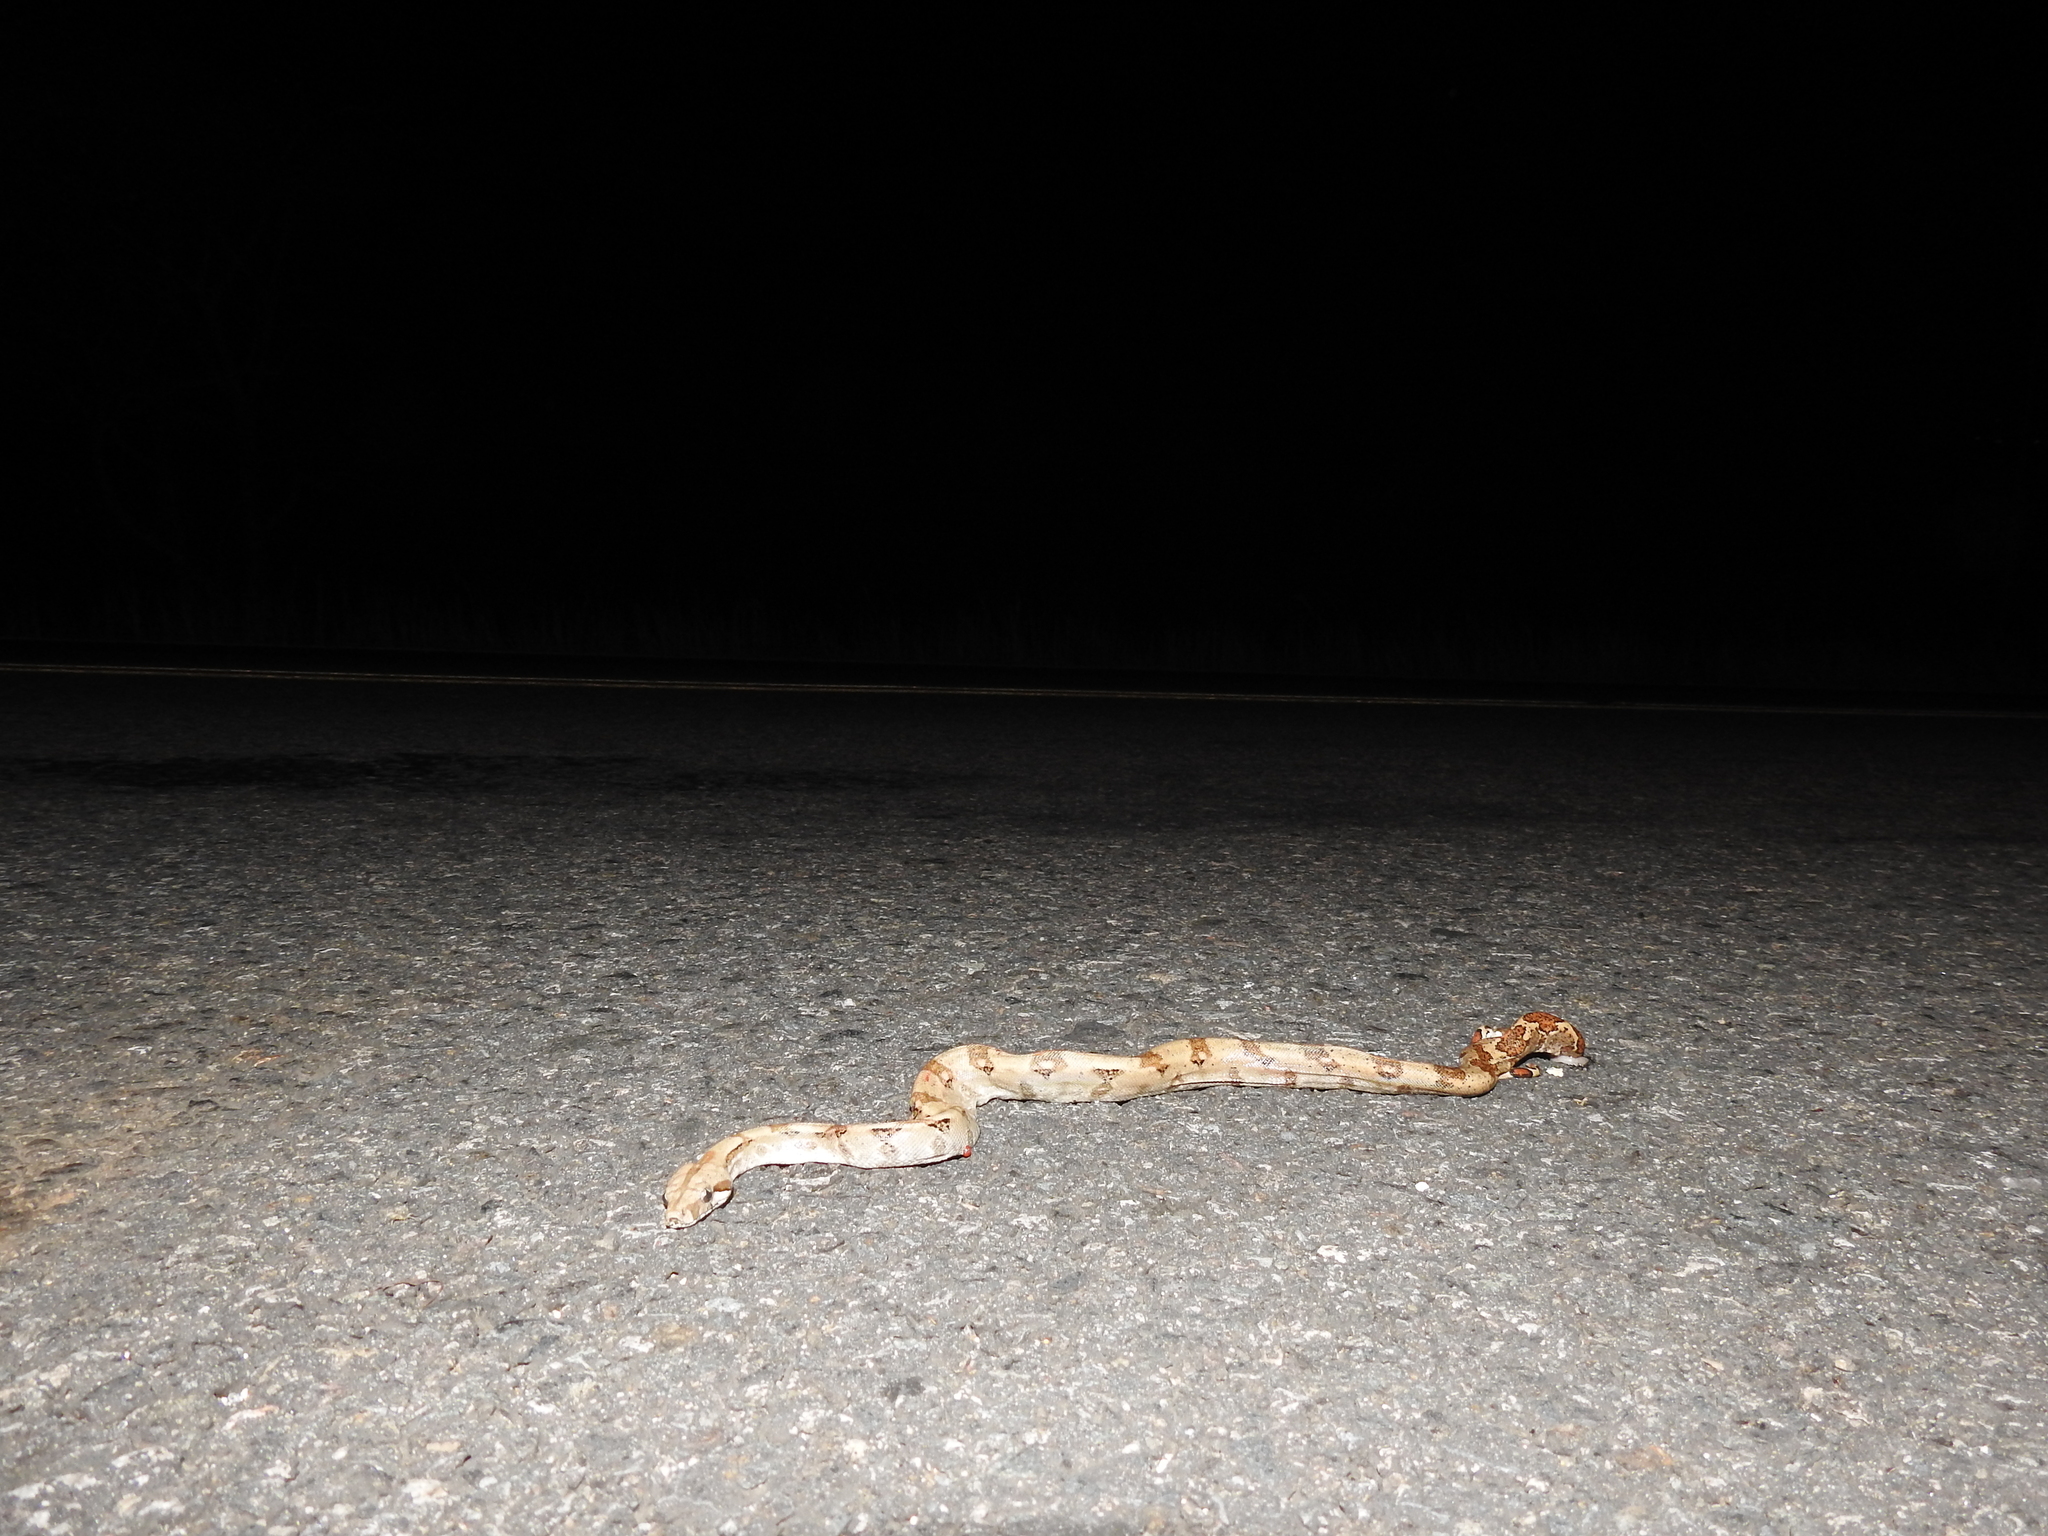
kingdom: Animalia
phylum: Chordata
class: Squamata
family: Boidae
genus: Boa
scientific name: Boa imperator
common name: Central american boa
